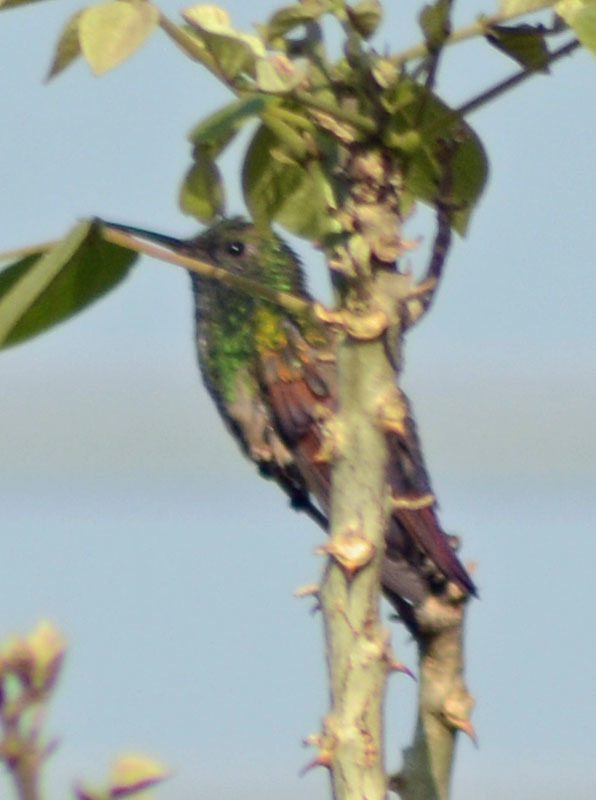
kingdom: Animalia
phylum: Chordata
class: Aves
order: Apodiformes
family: Trochilidae
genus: Saucerottia
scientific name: Saucerottia beryllina
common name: Berylline hummingbird
